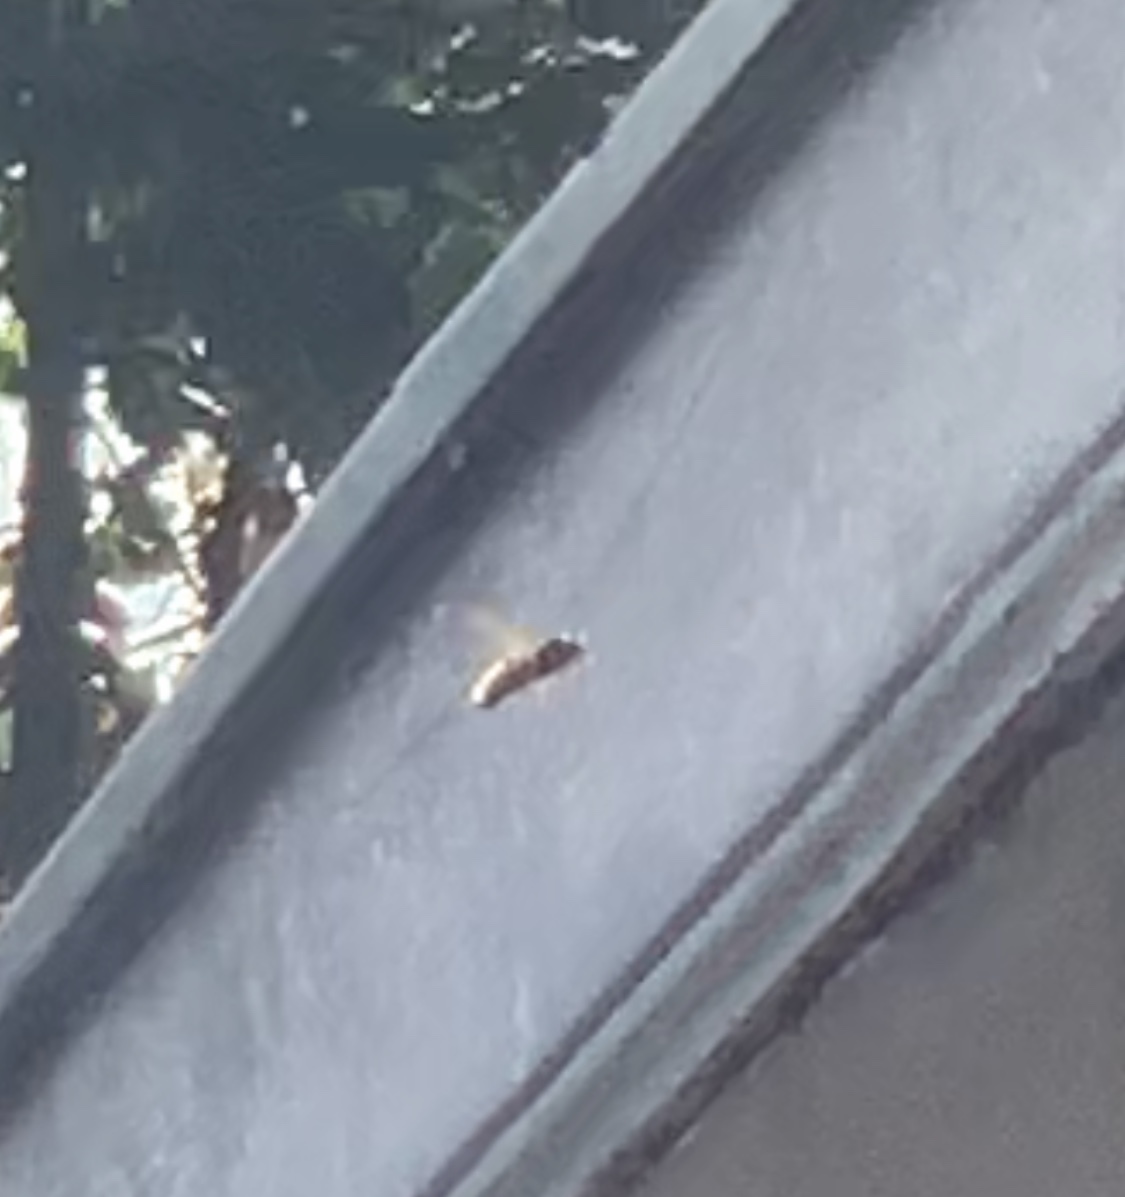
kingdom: Animalia
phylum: Arthropoda
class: Insecta
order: Hymenoptera
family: Vespidae
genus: Vespa
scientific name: Vespa crabro
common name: Hornet
